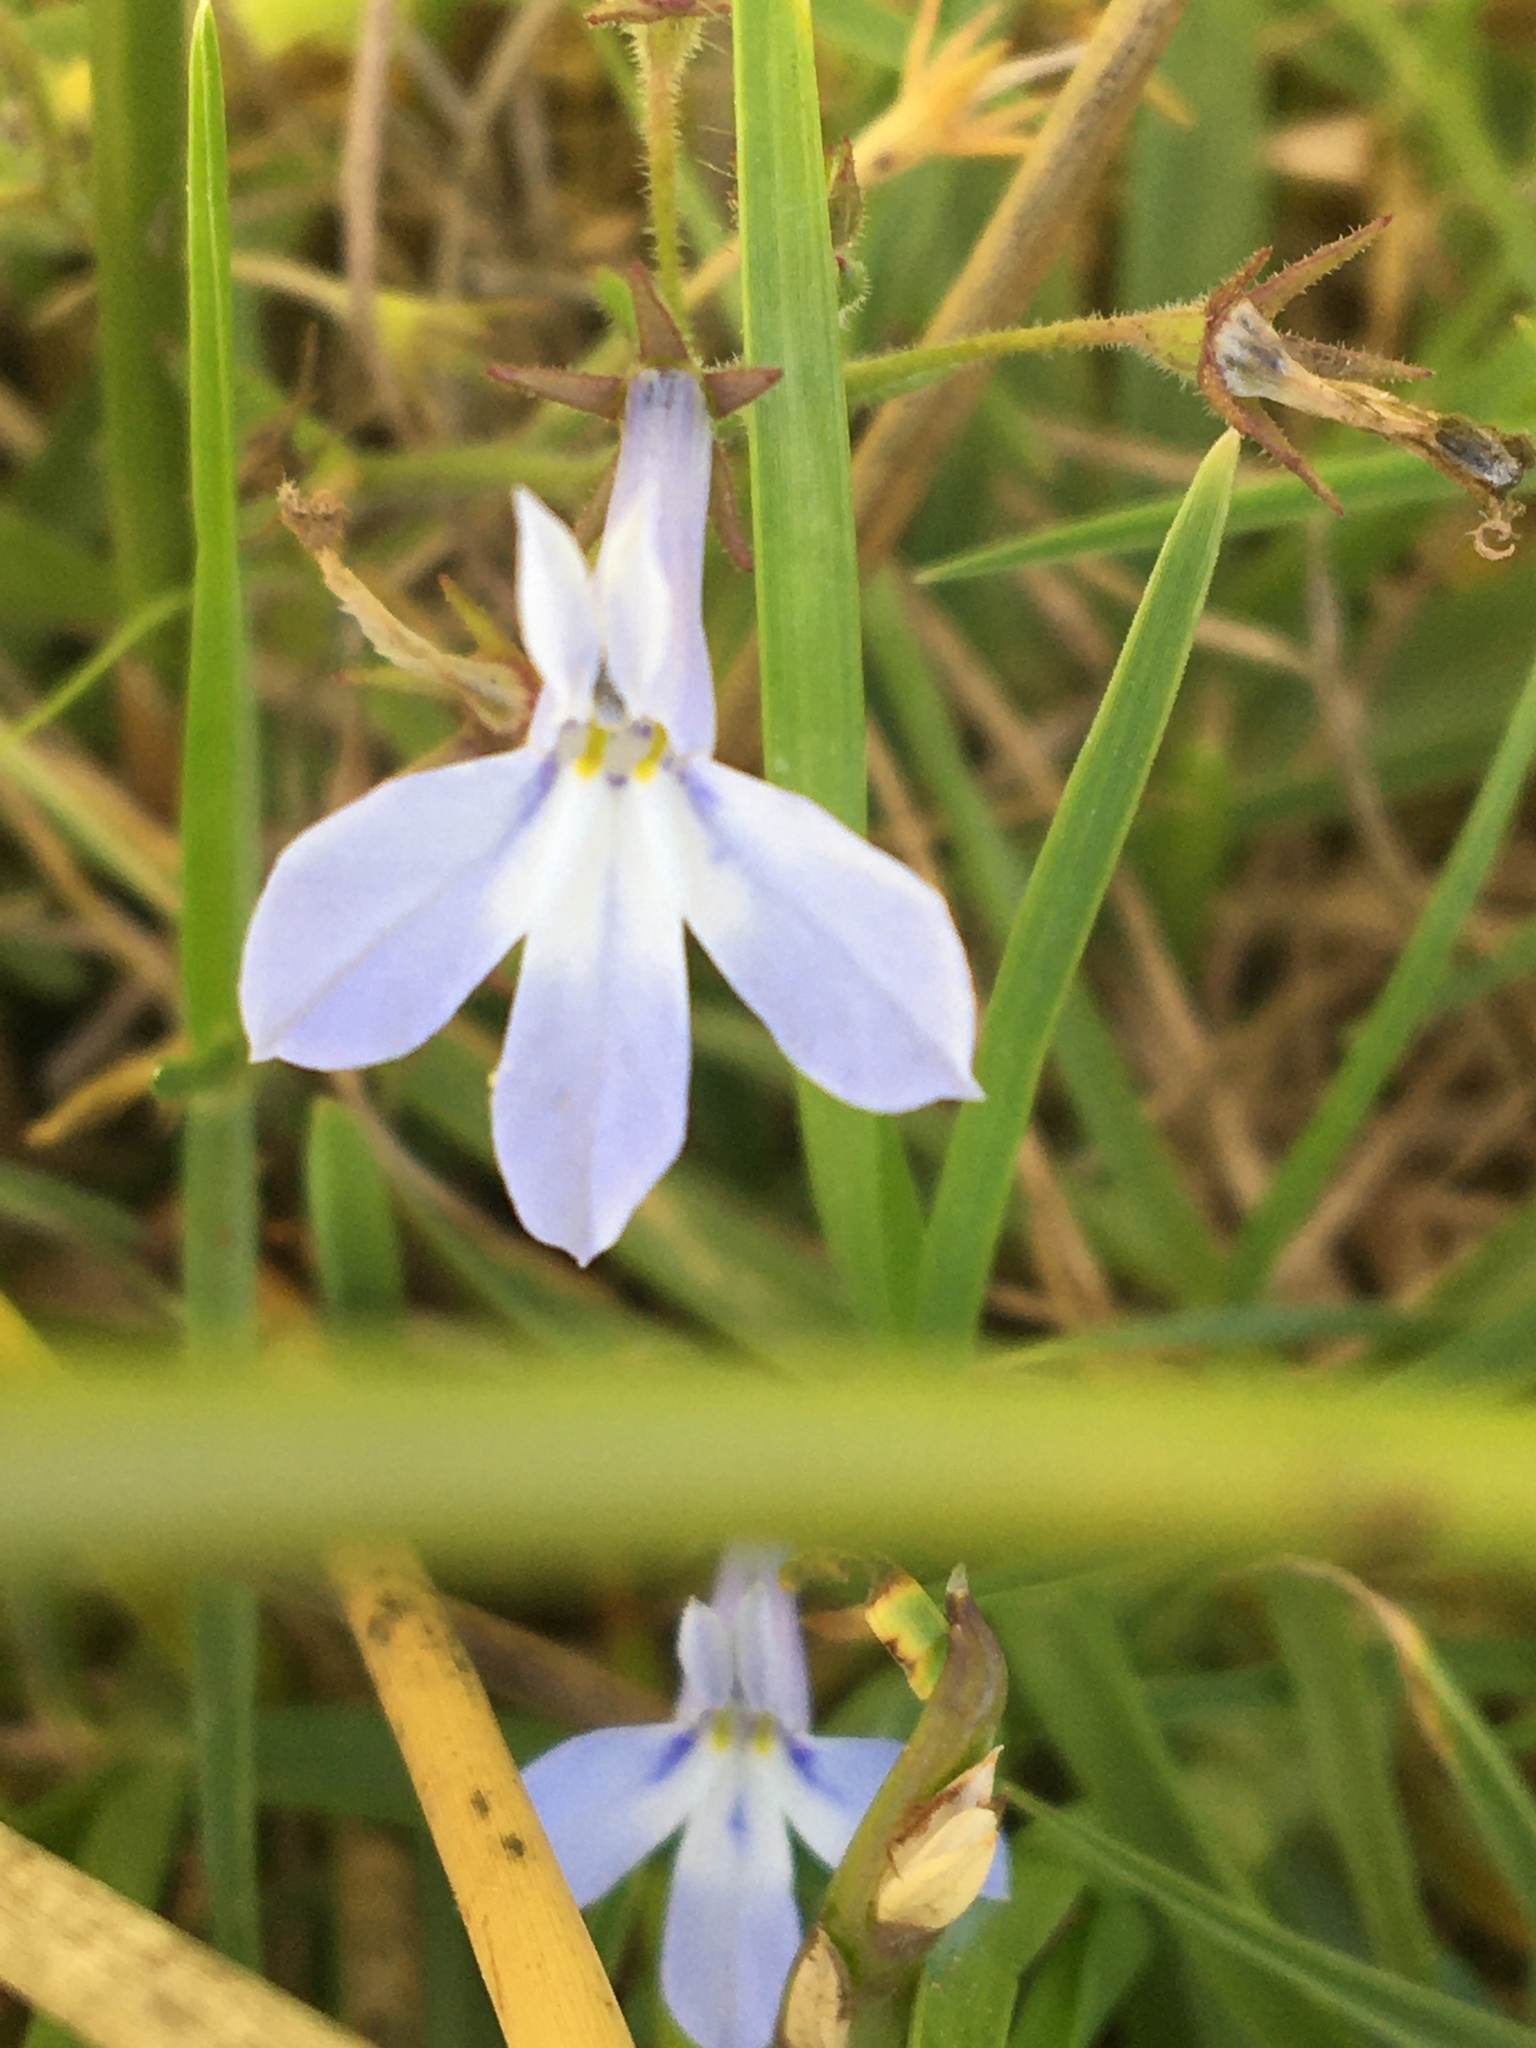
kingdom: Plantae
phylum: Tracheophyta
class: Magnoliopsida
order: Asterales
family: Campanulaceae
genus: Lobelia
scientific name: Lobelia erinus
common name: Edging lobelia
